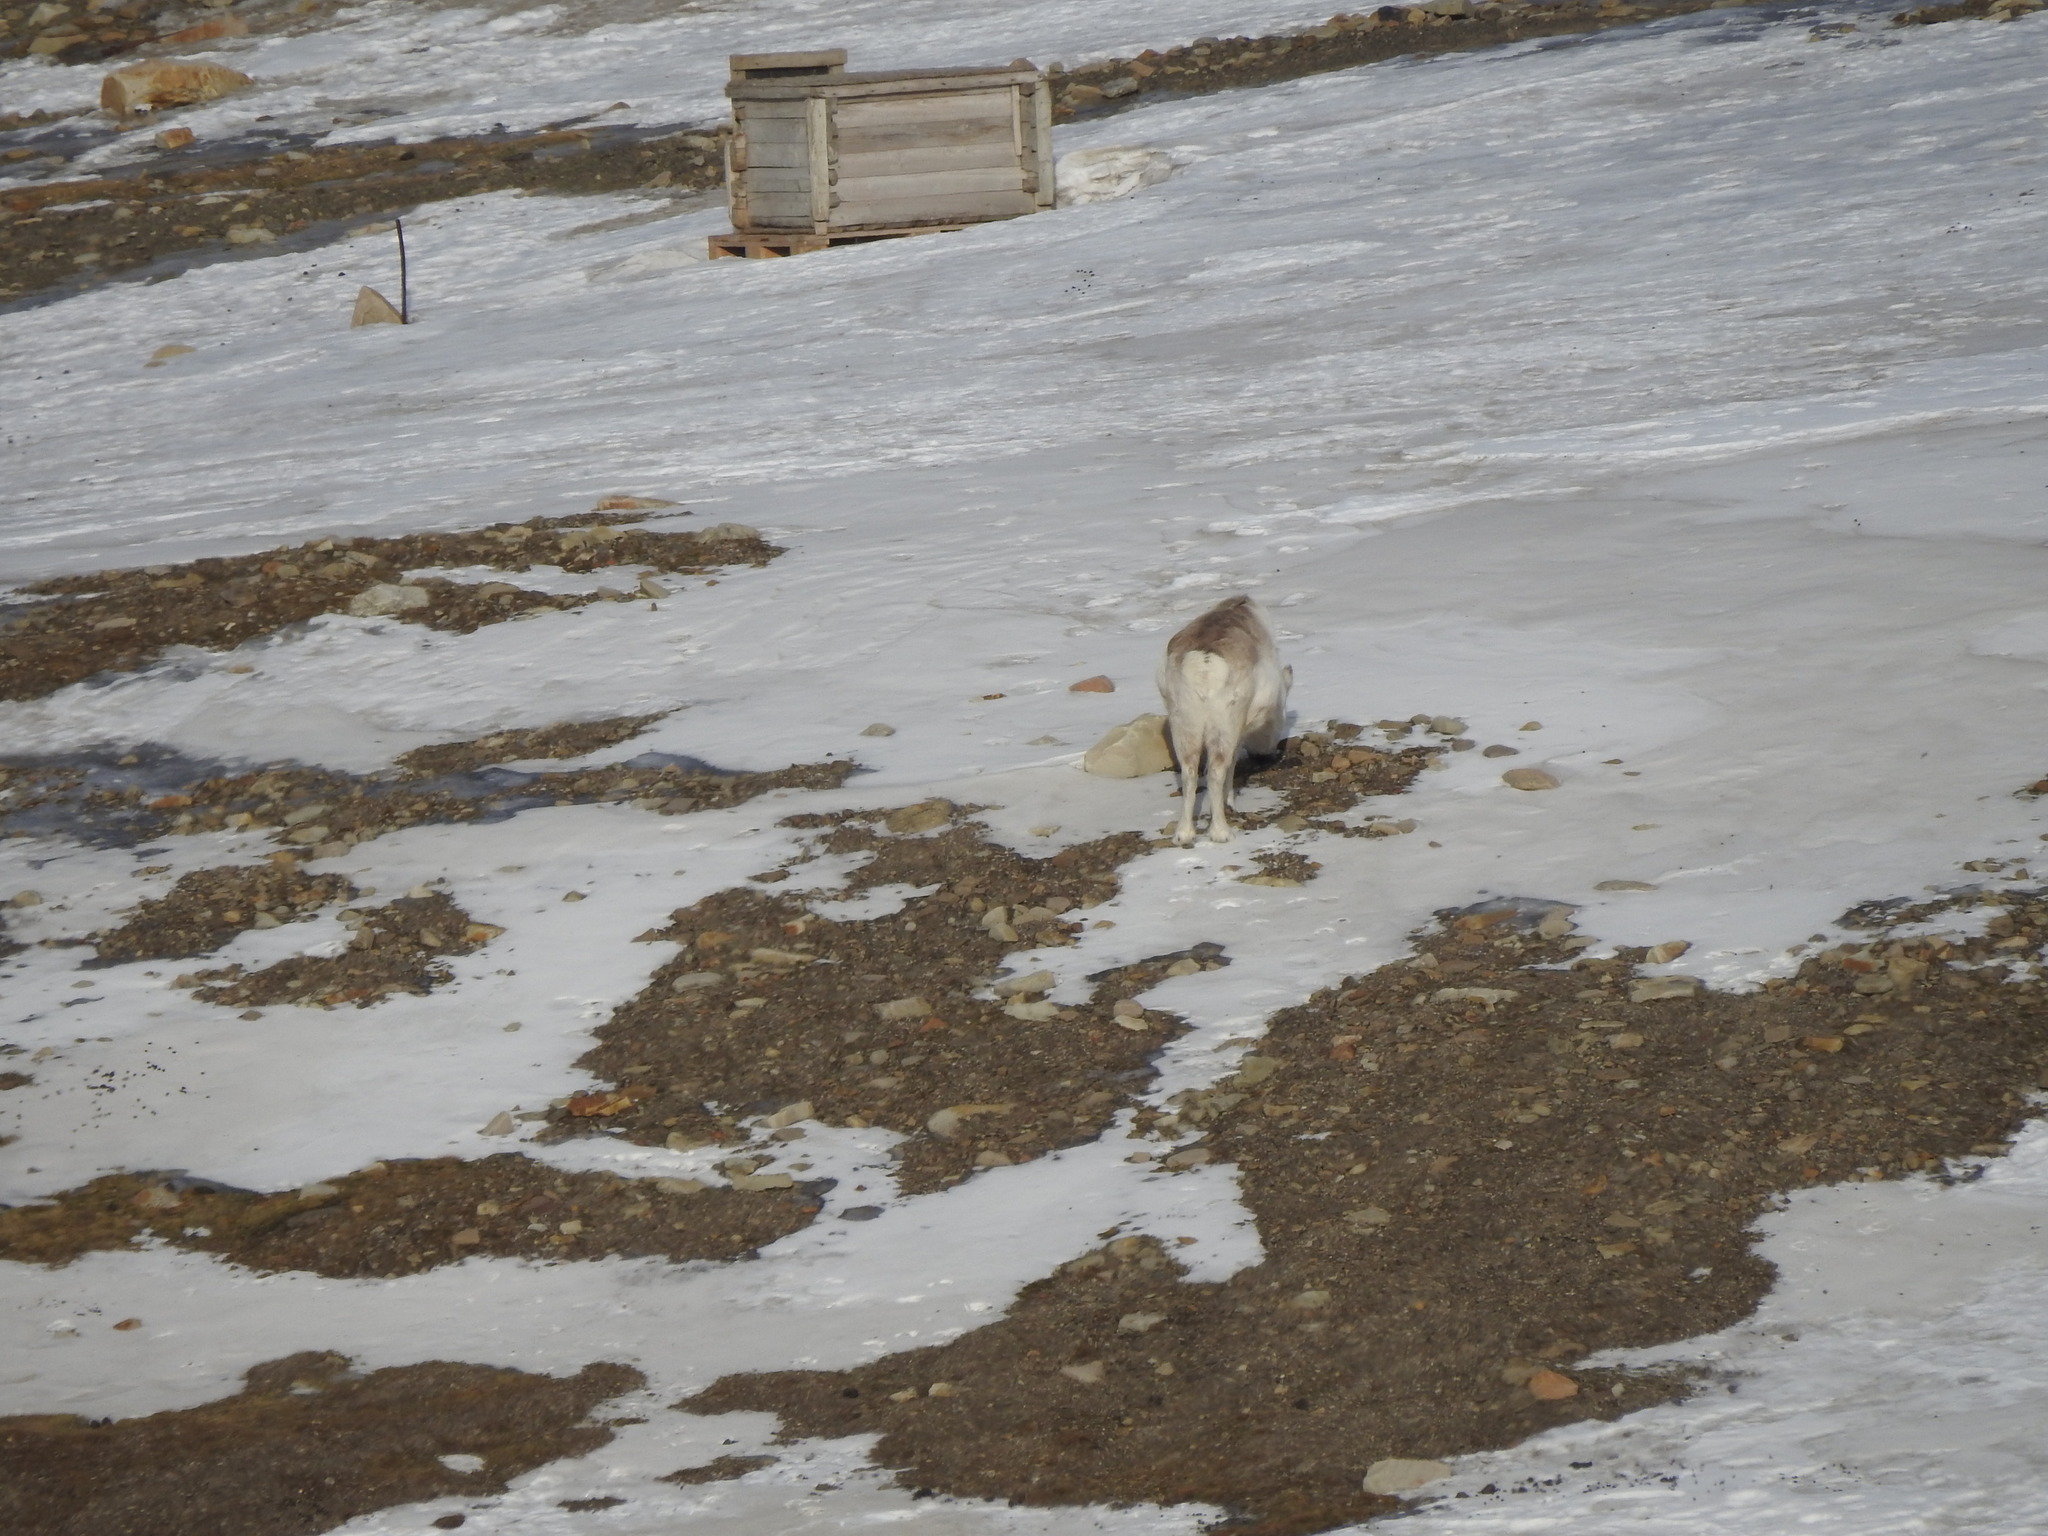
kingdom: Animalia
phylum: Chordata
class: Mammalia
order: Artiodactyla
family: Cervidae
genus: Rangifer
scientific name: Rangifer tarandus
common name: Reindeer
